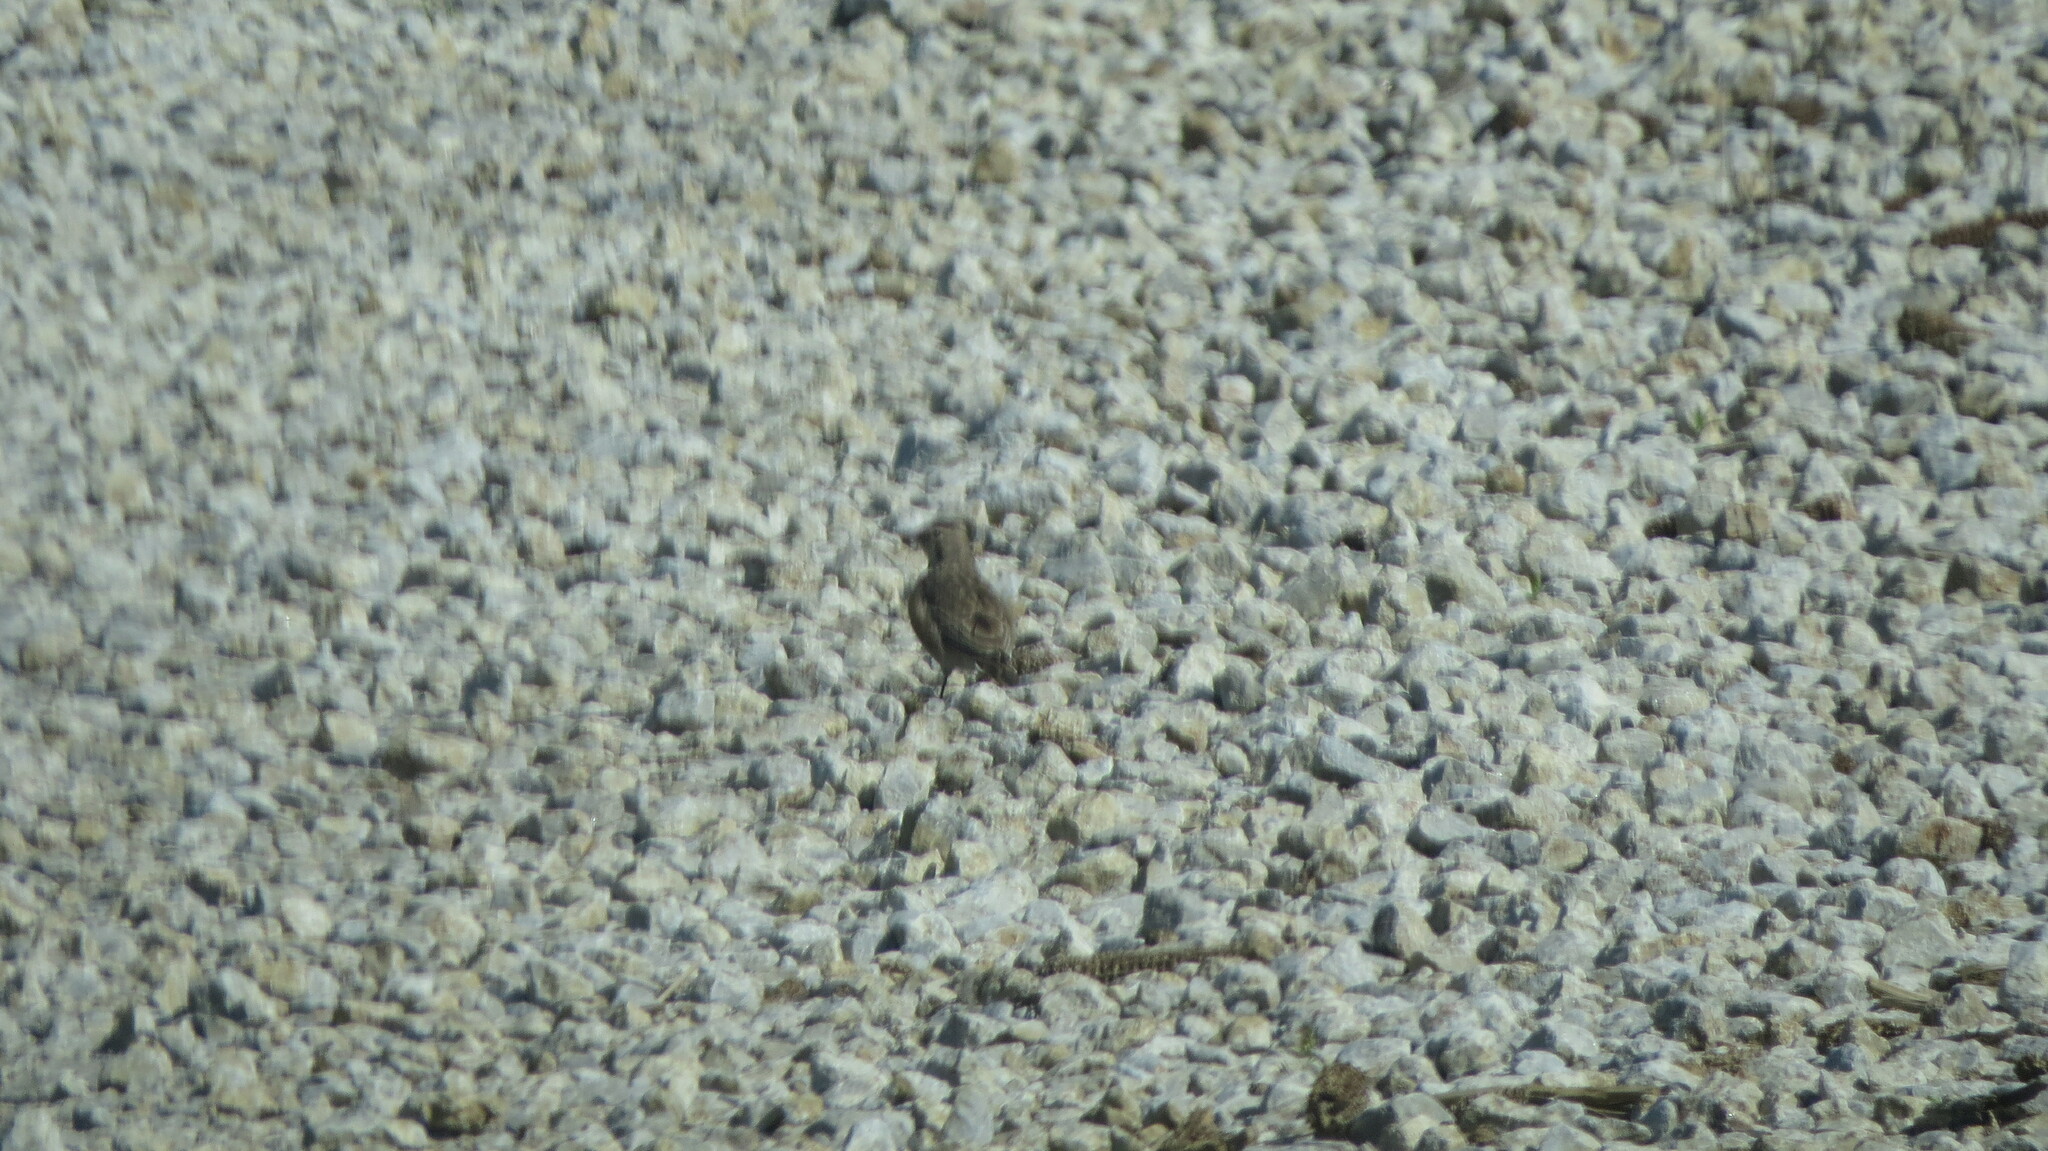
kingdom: Animalia
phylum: Chordata
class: Aves
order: Passeriformes
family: Alaudidae
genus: Eremophila
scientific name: Eremophila alpestris
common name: Horned lark
